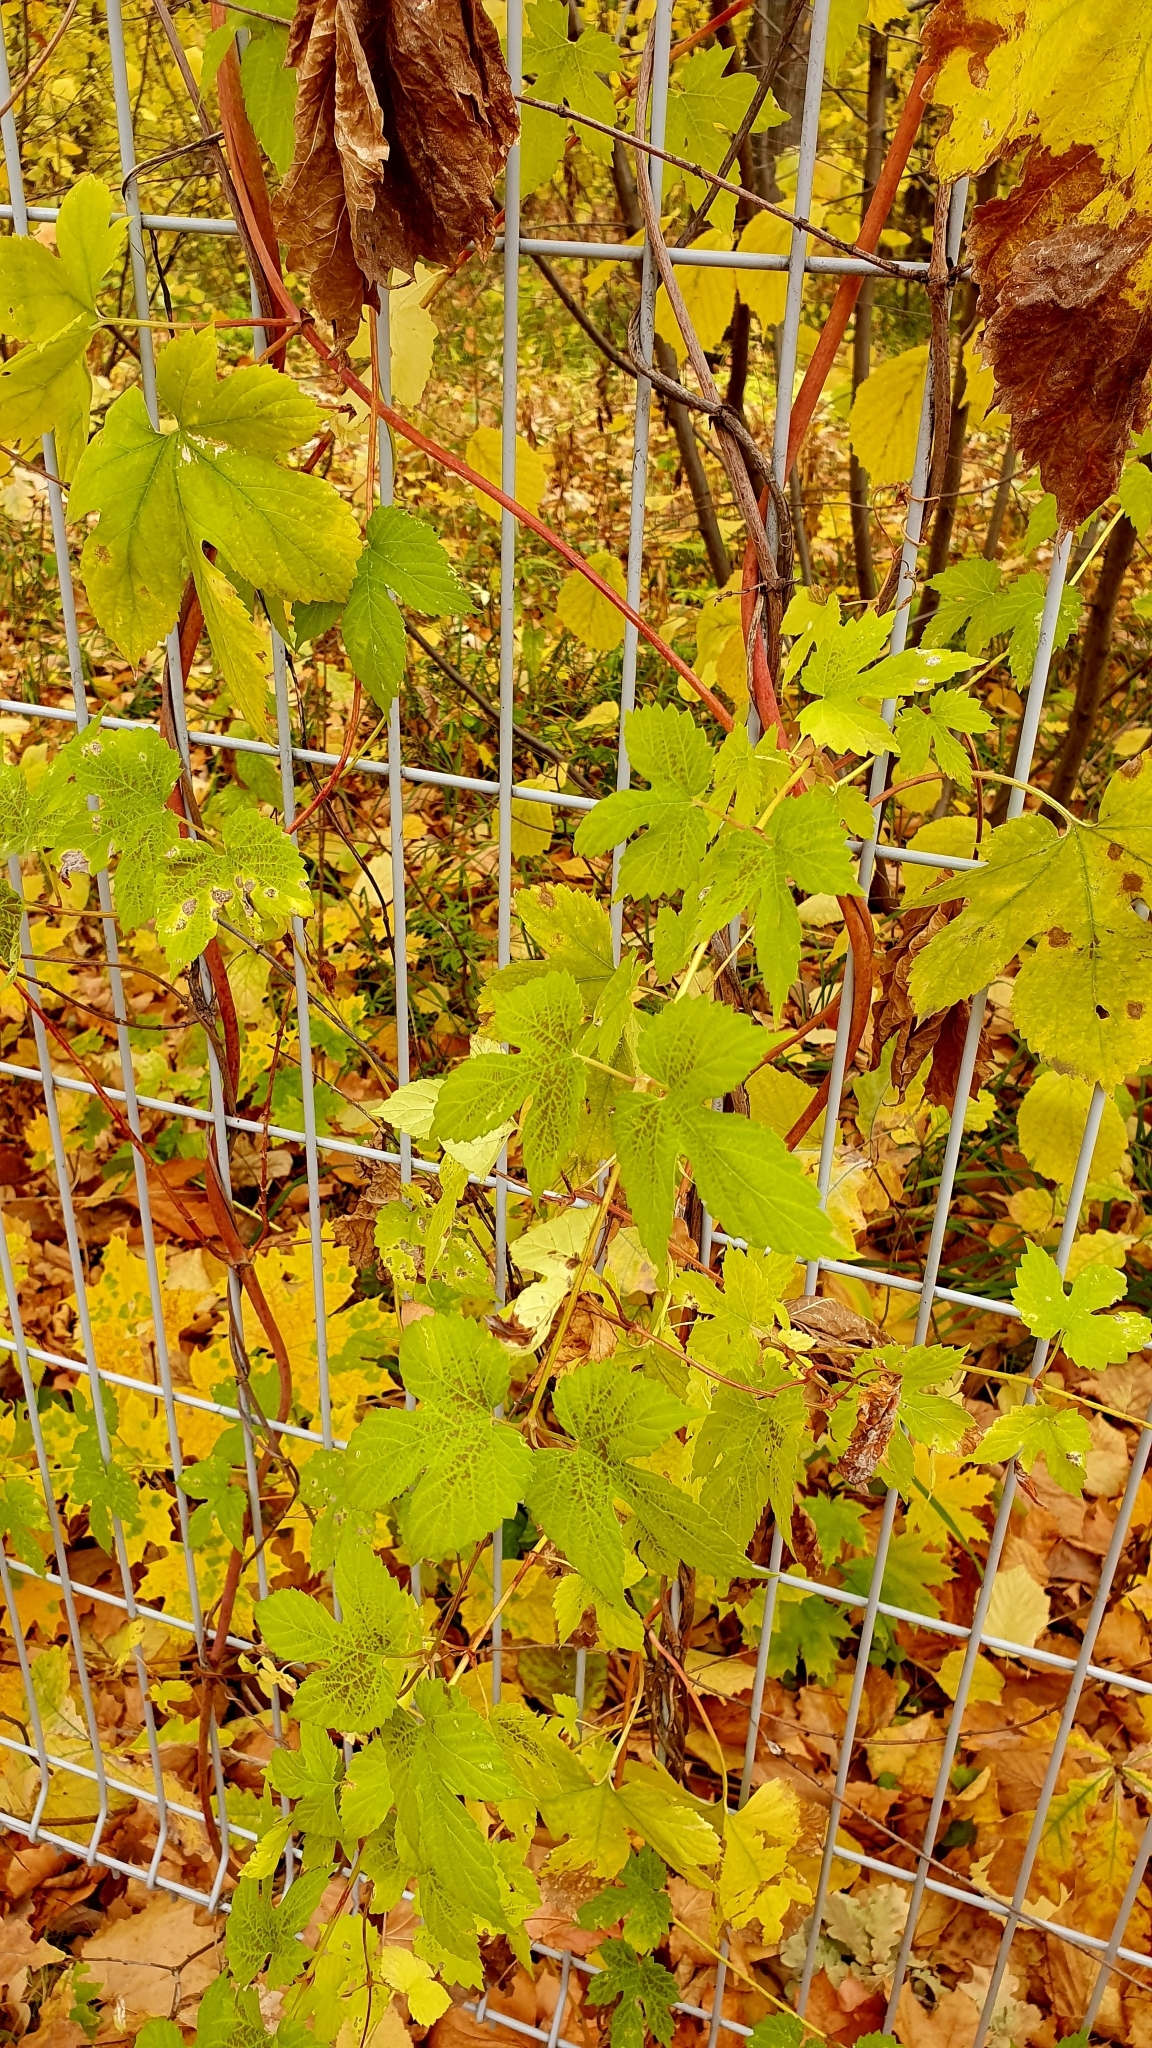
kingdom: Plantae
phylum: Tracheophyta
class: Magnoliopsida
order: Rosales
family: Cannabaceae
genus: Humulus
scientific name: Humulus lupulus
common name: Hop
